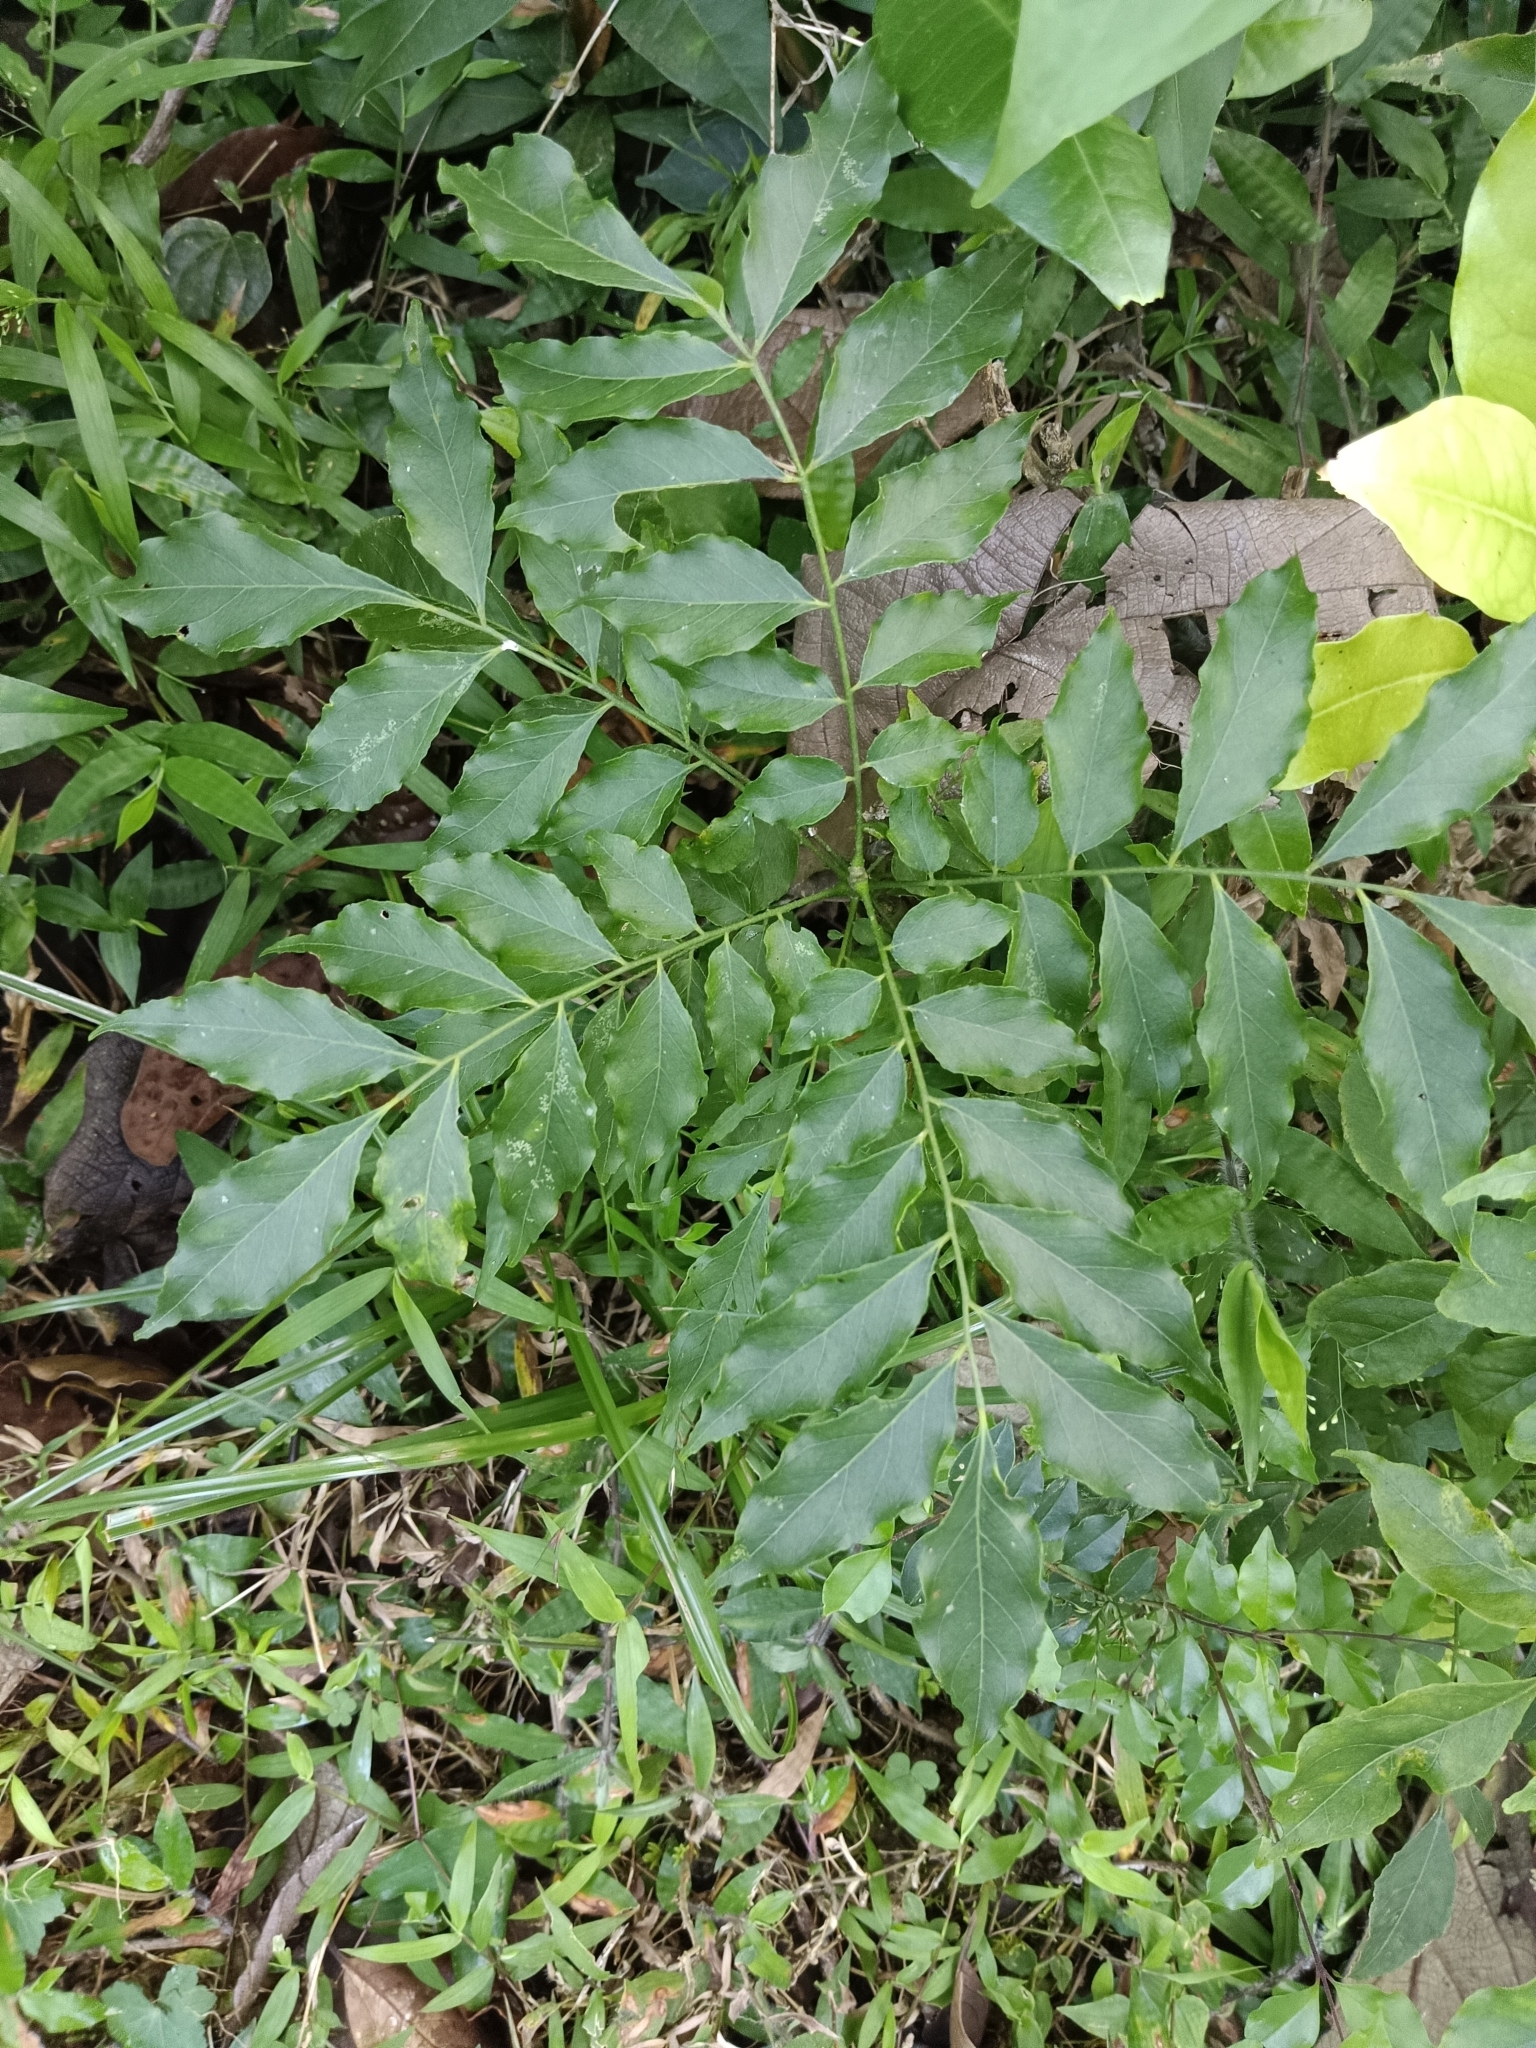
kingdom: Plantae
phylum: Tracheophyta
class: Magnoliopsida
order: Sapindales
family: Rutaceae
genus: Murraya
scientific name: Murraya koenigii
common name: Curry-plant
